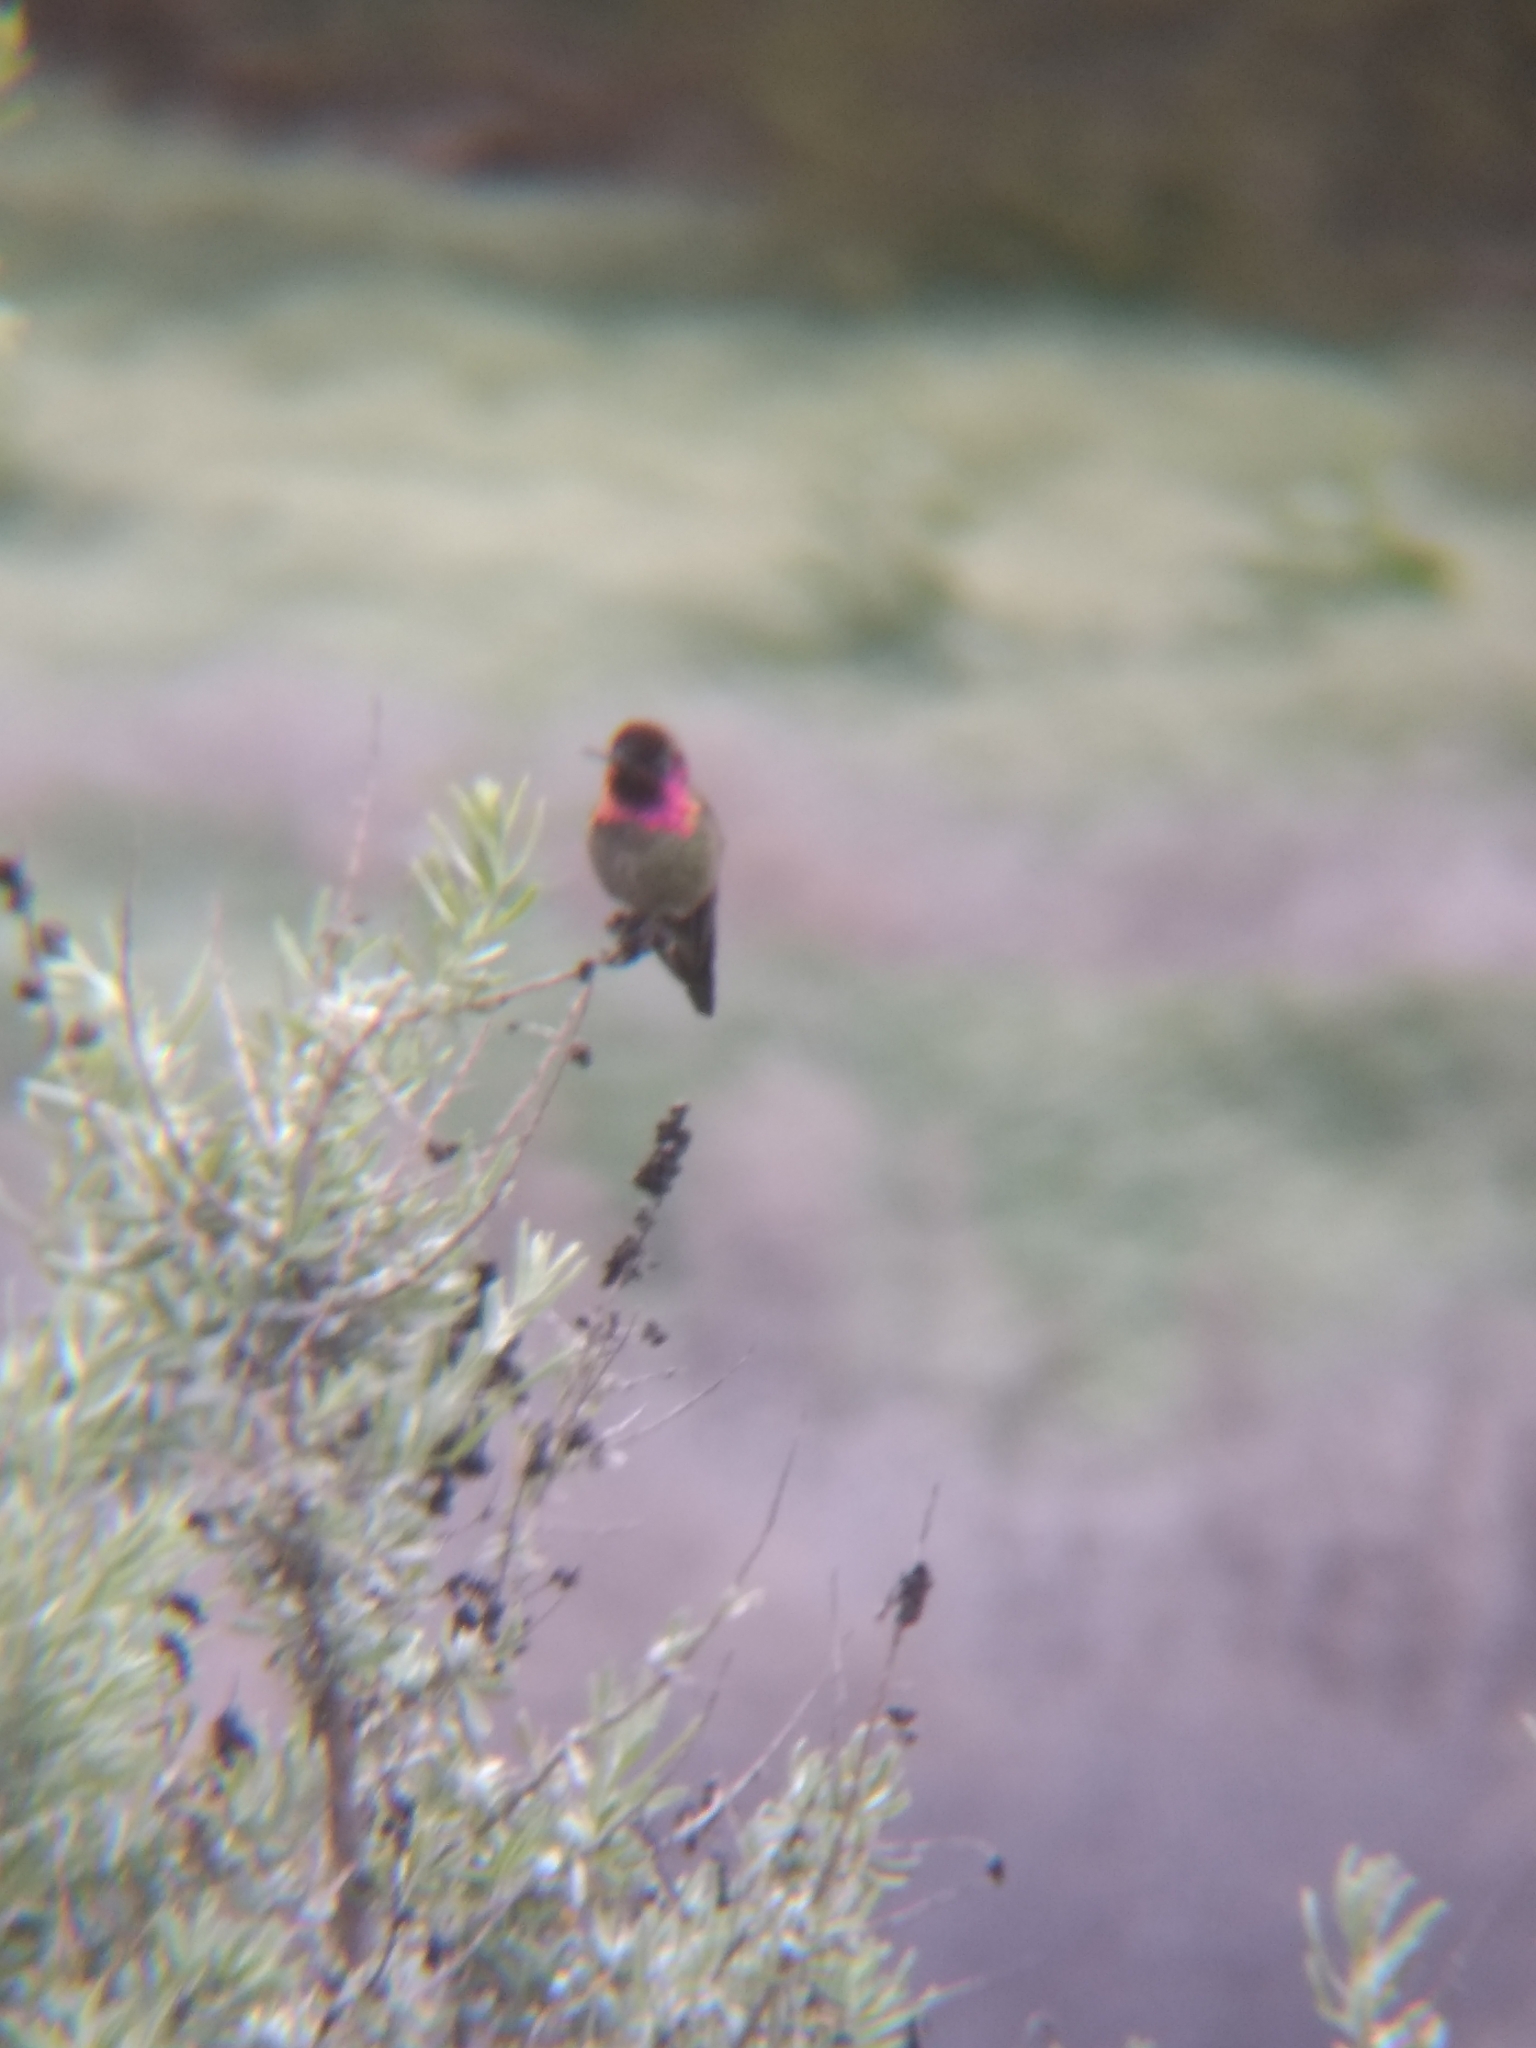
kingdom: Animalia
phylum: Chordata
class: Aves
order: Apodiformes
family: Trochilidae
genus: Calypte
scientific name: Calypte anna
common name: Anna's hummingbird
